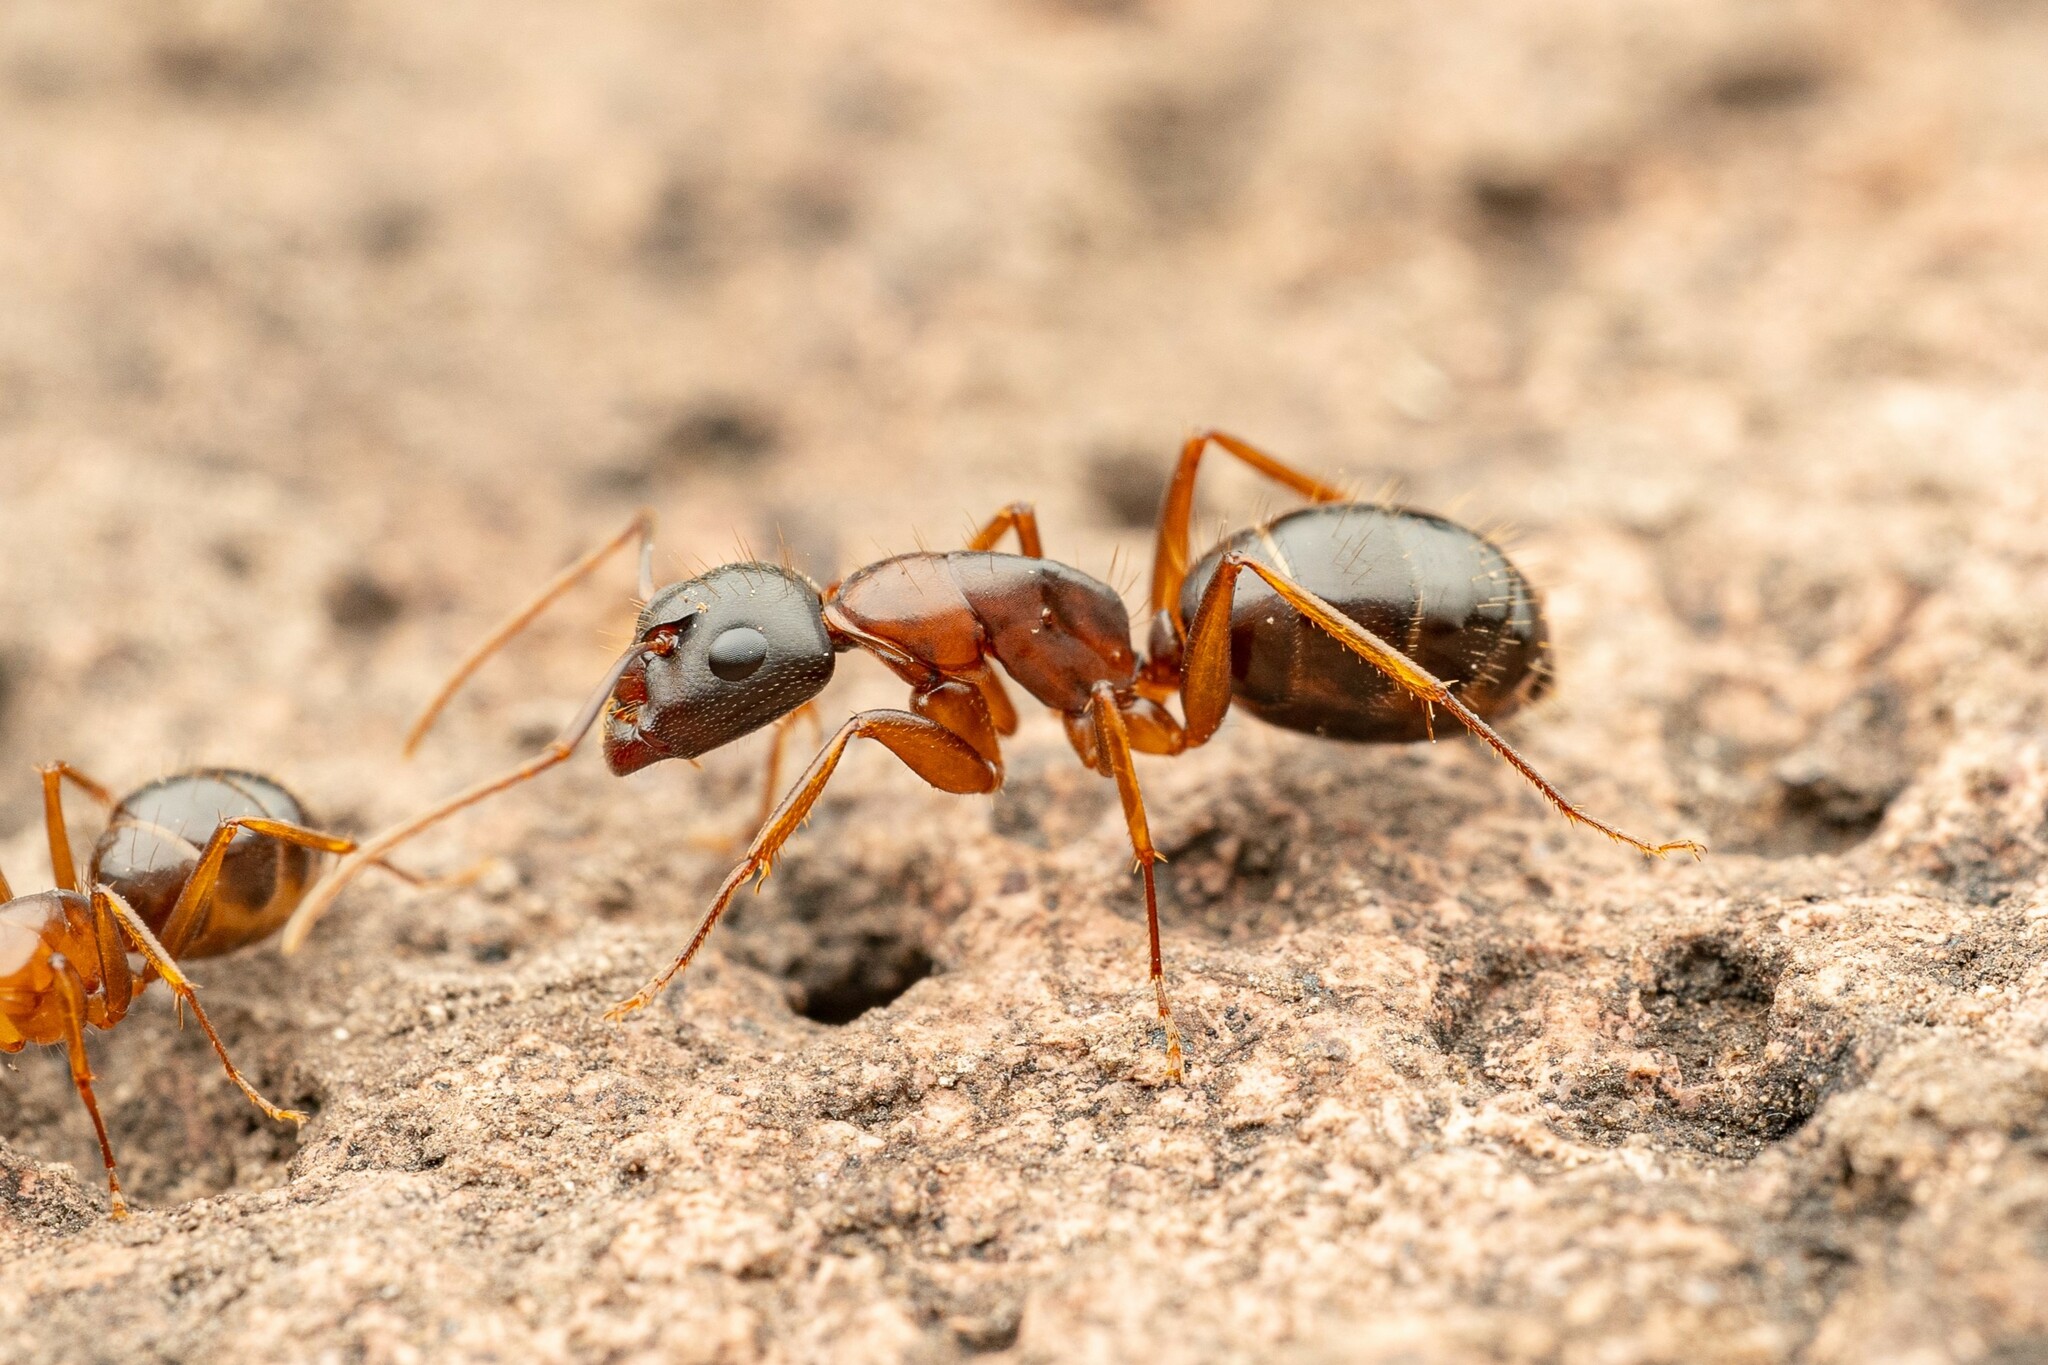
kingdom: Animalia
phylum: Arthropoda
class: Insecta
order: Hymenoptera
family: Formicidae
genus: Camponotus
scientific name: Camponotus sansabeanus
